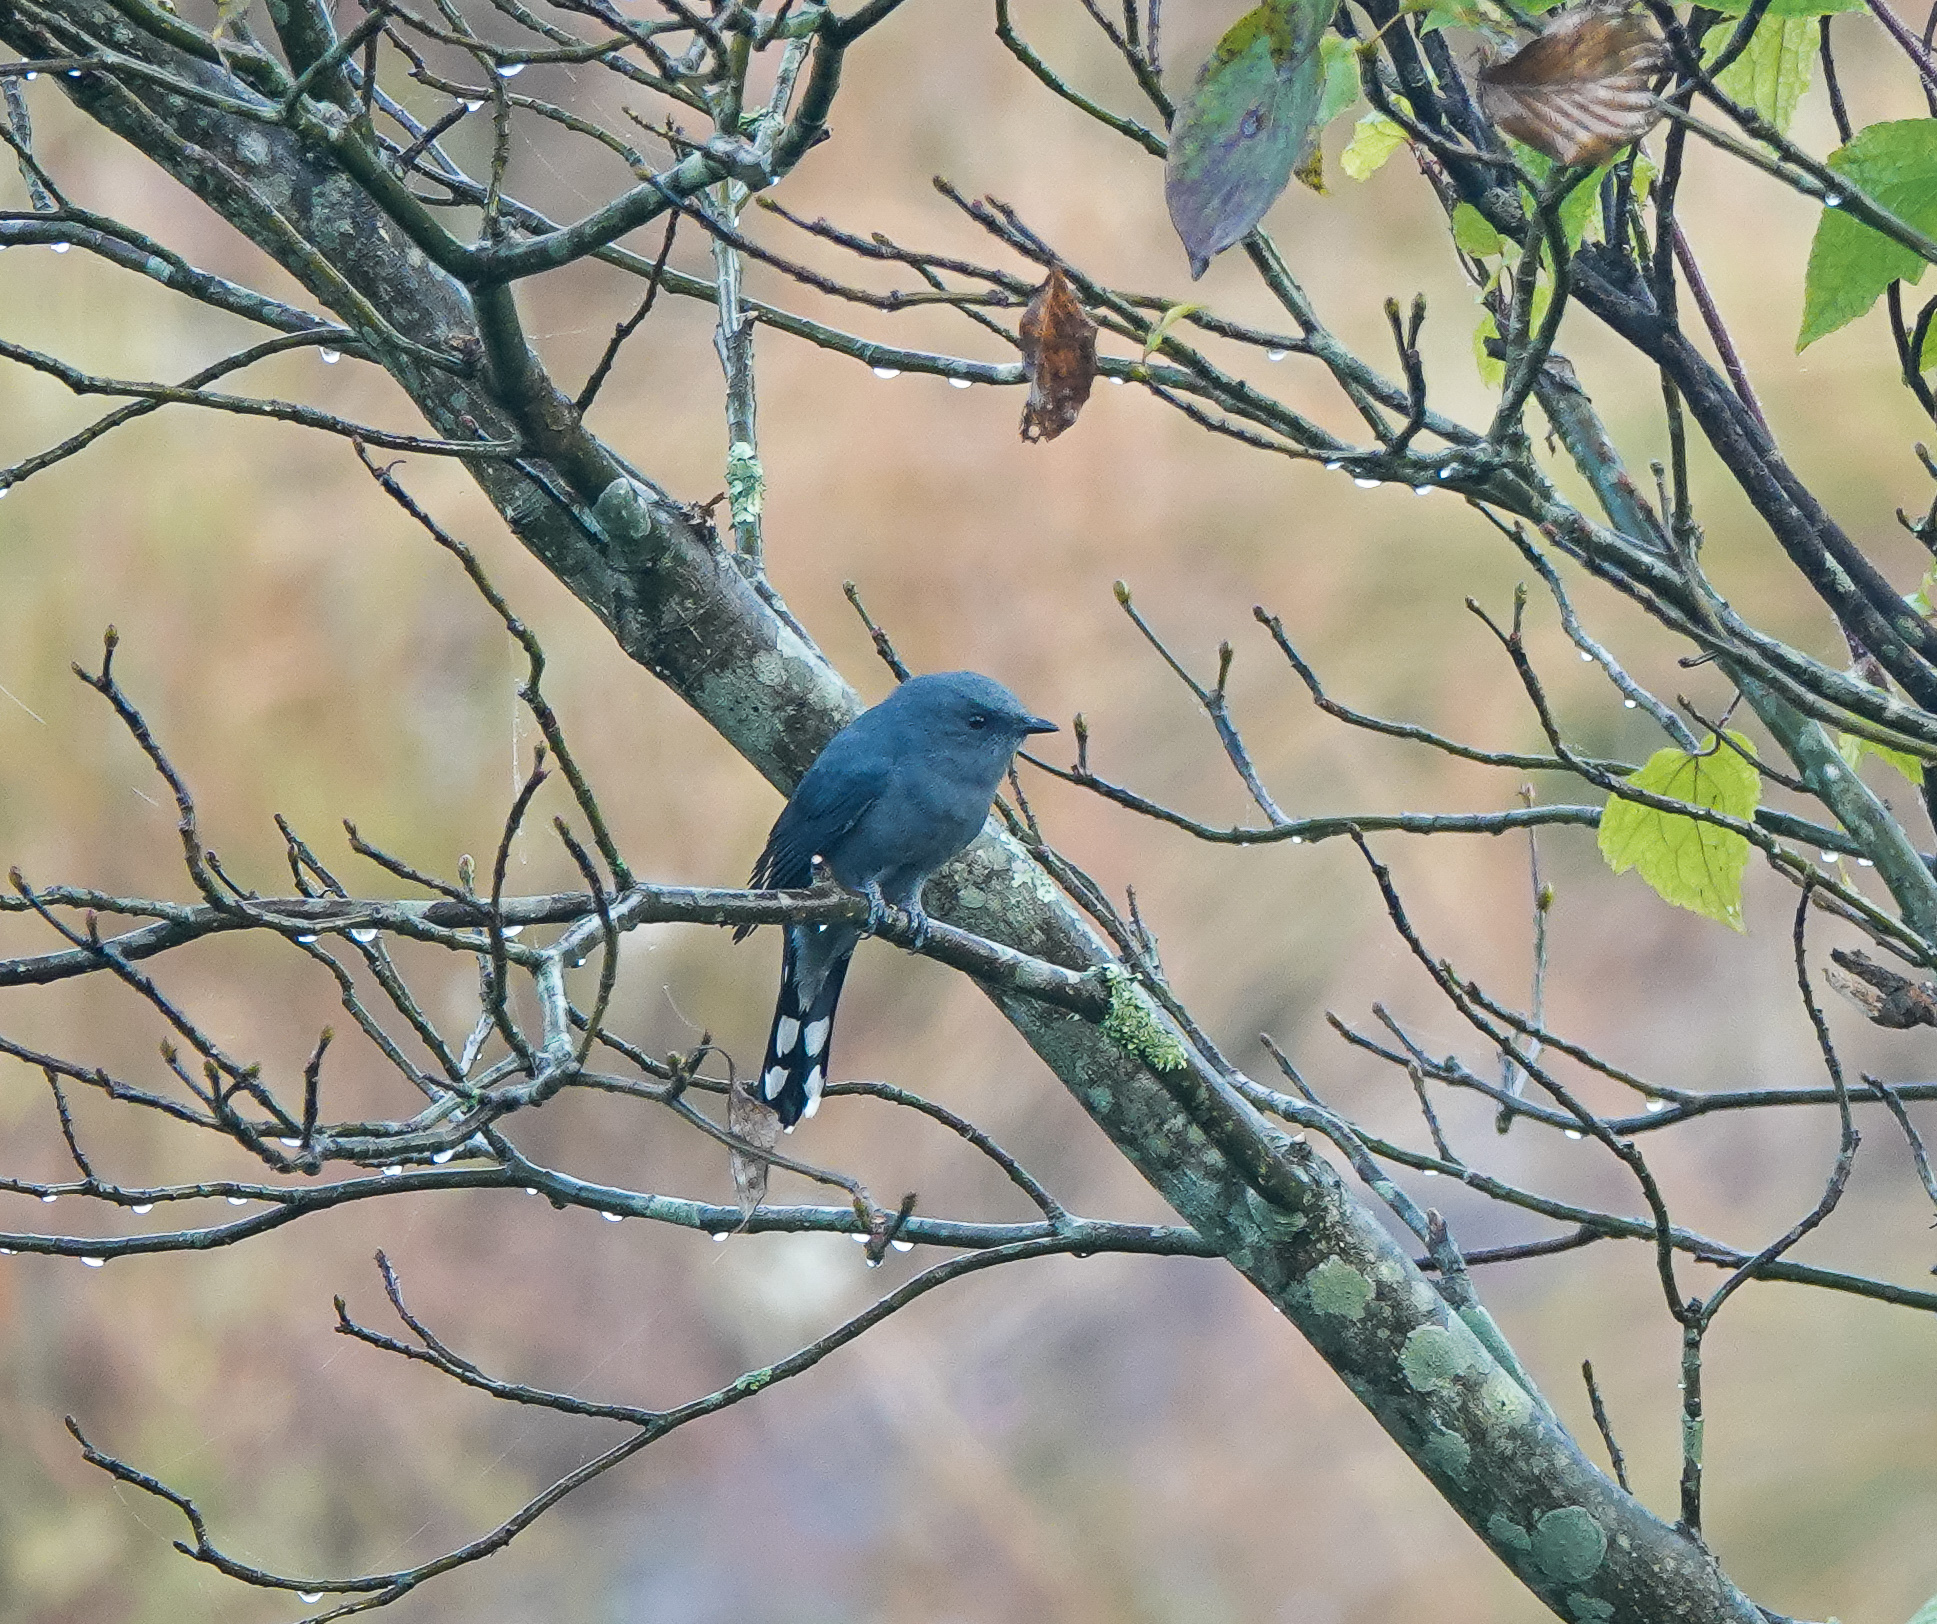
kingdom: Animalia
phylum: Chordata
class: Aves
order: Passeriformes
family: Campephagidae
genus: Coracina
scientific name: Coracina melaschistos
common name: Black-winged cuckooshrike
